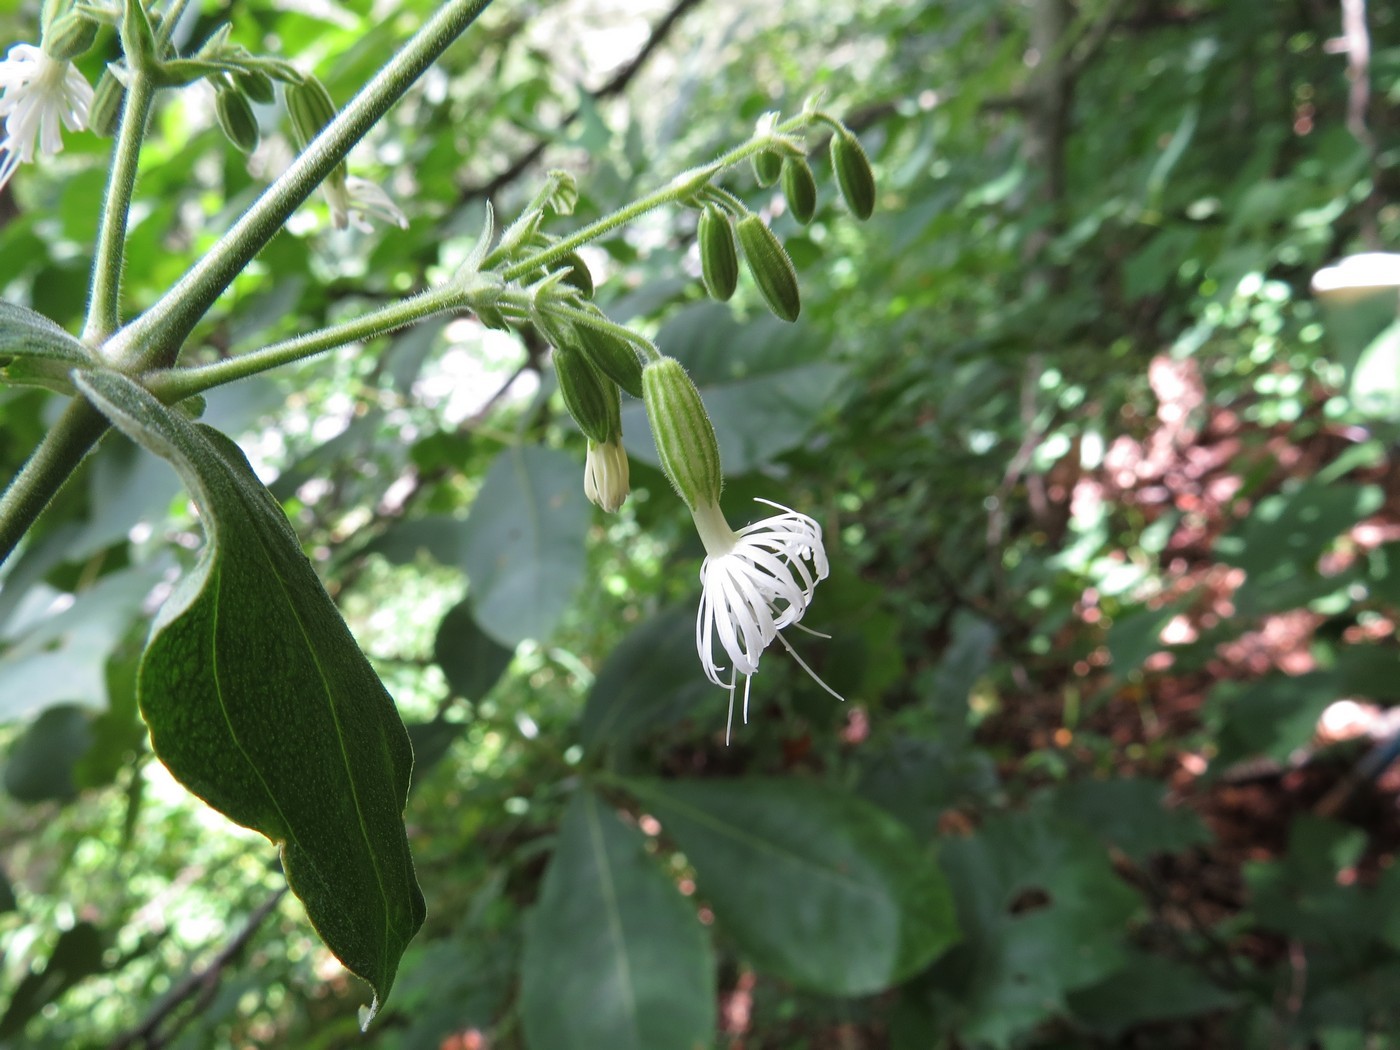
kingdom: Plantae
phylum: Tracheophyta
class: Magnoliopsida
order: Caryophyllales
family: Caryophyllaceae
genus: Silene
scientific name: Silene ovata
